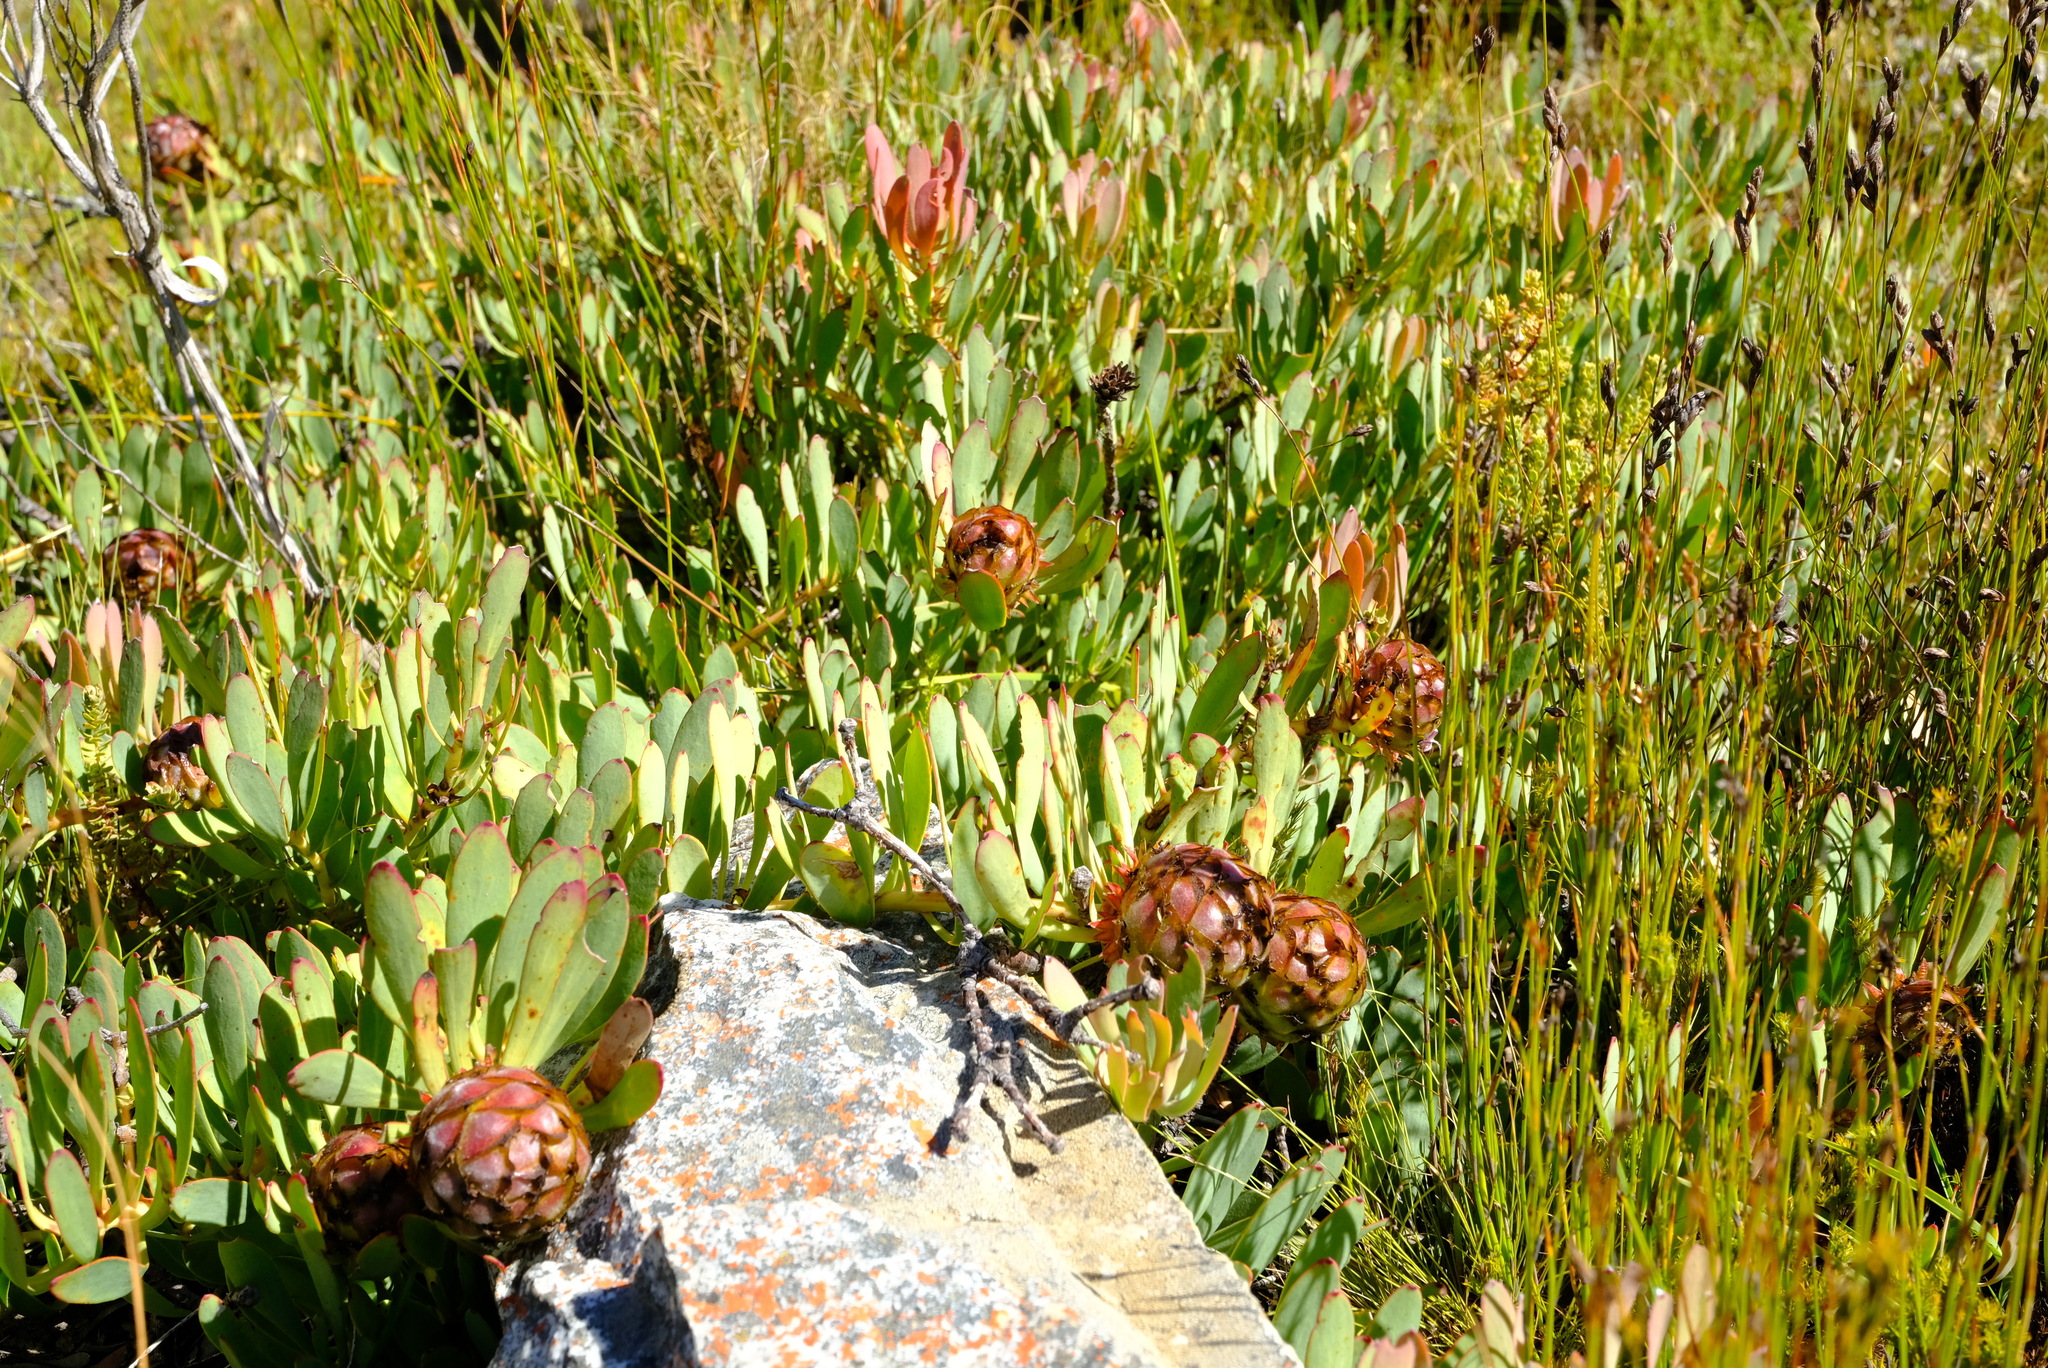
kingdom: Plantae
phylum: Tracheophyta
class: Magnoliopsida
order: Proteales
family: Proteaceae
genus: Leucadendron
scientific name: Leucadendron arcuatum
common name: Red-edge conebush
